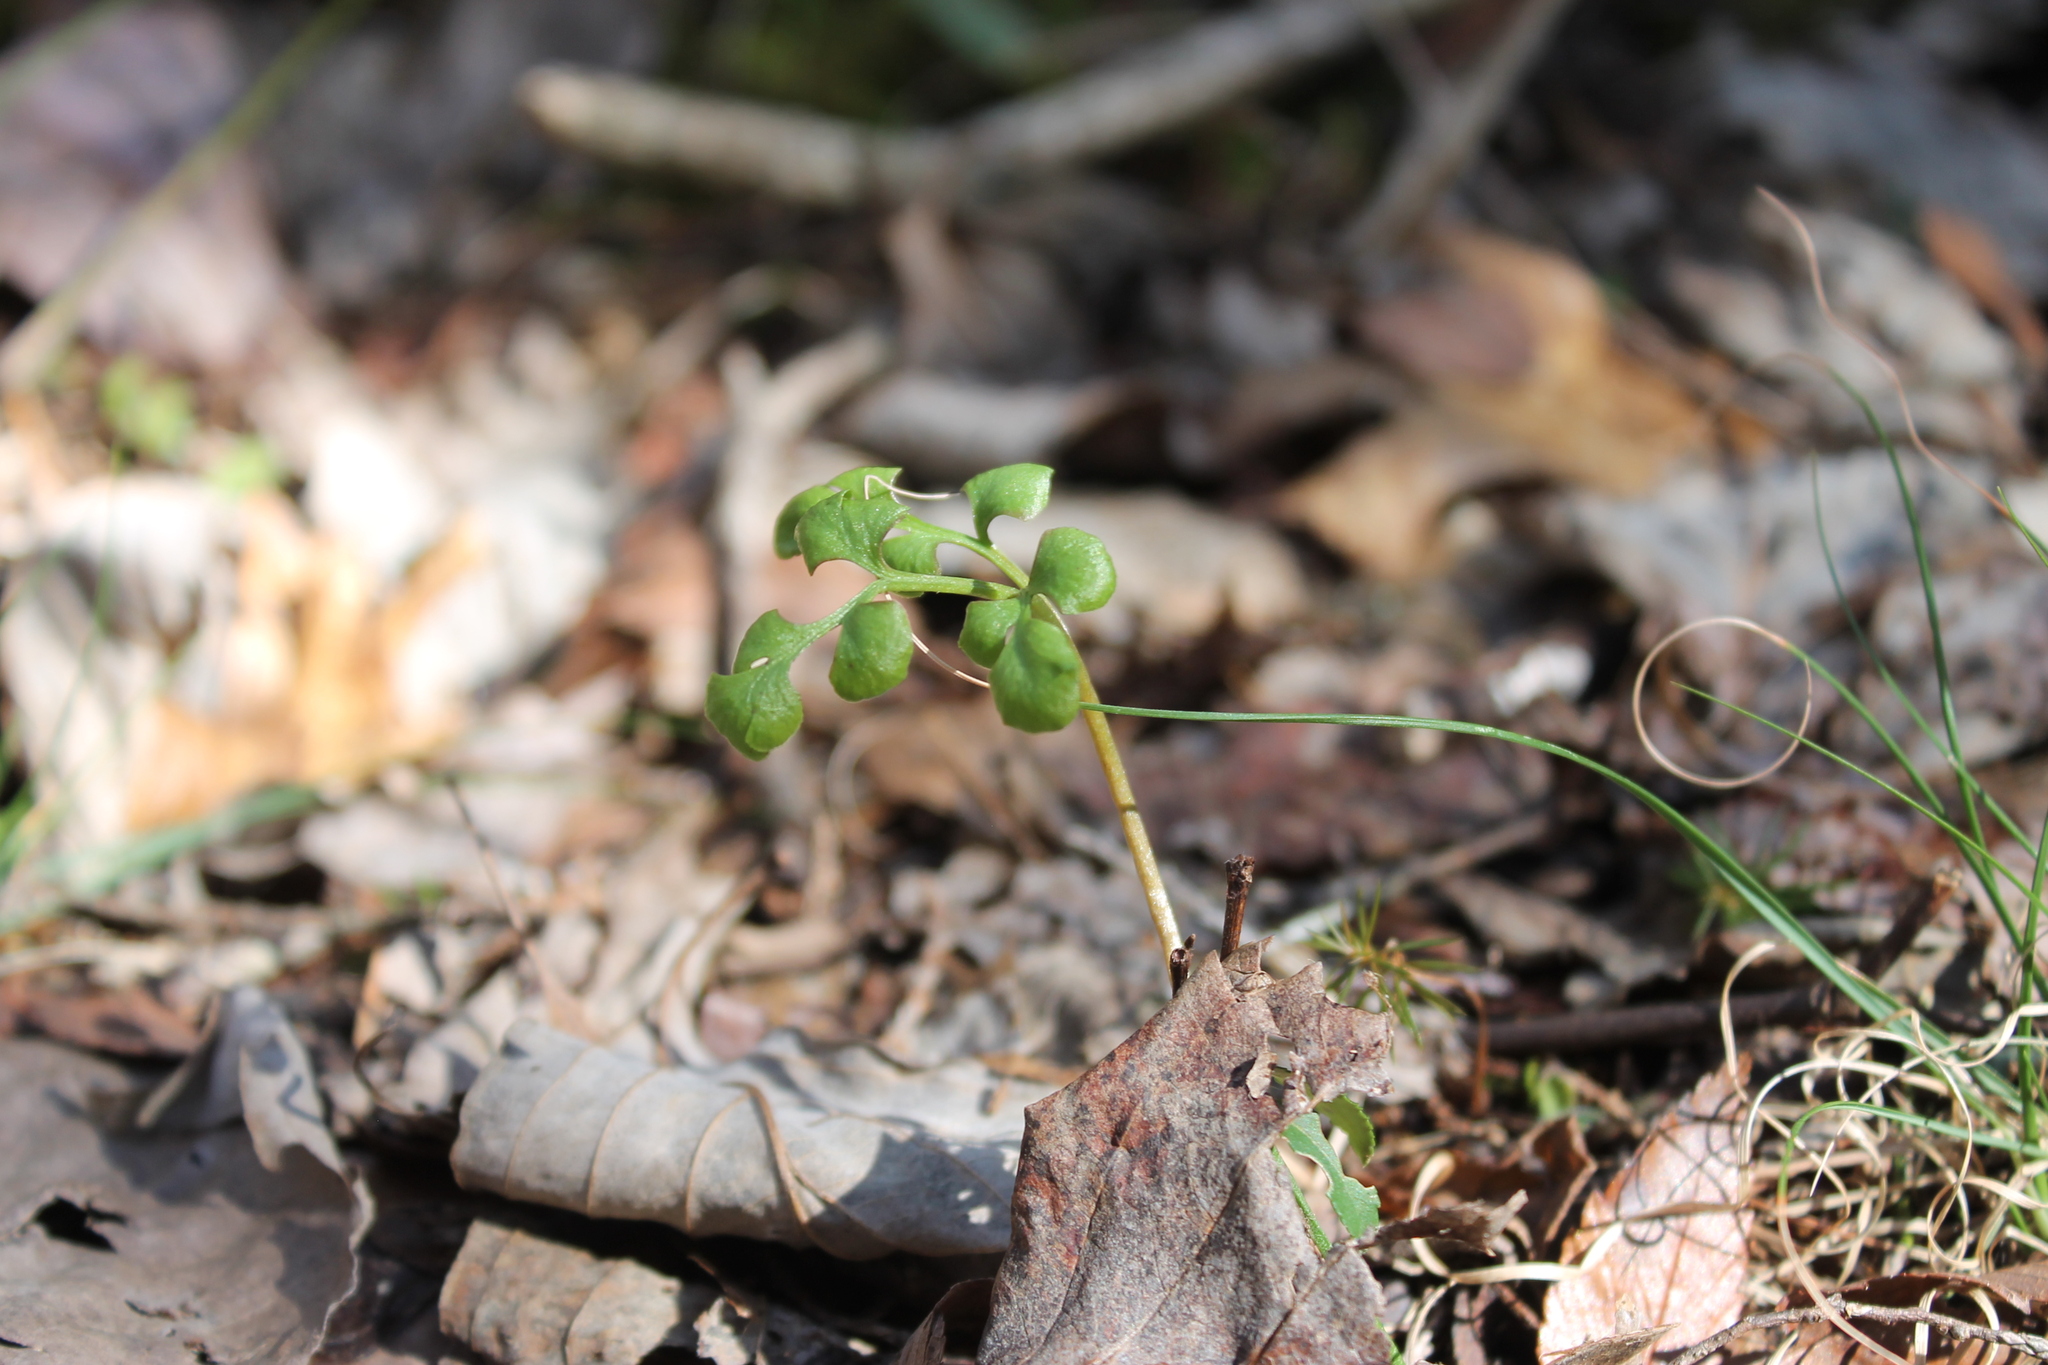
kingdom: Plantae
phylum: Tracheophyta
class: Polypodiopsida
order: Ophioglossales
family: Ophioglossaceae
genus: Sceptridium
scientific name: Sceptridium jenmanii
